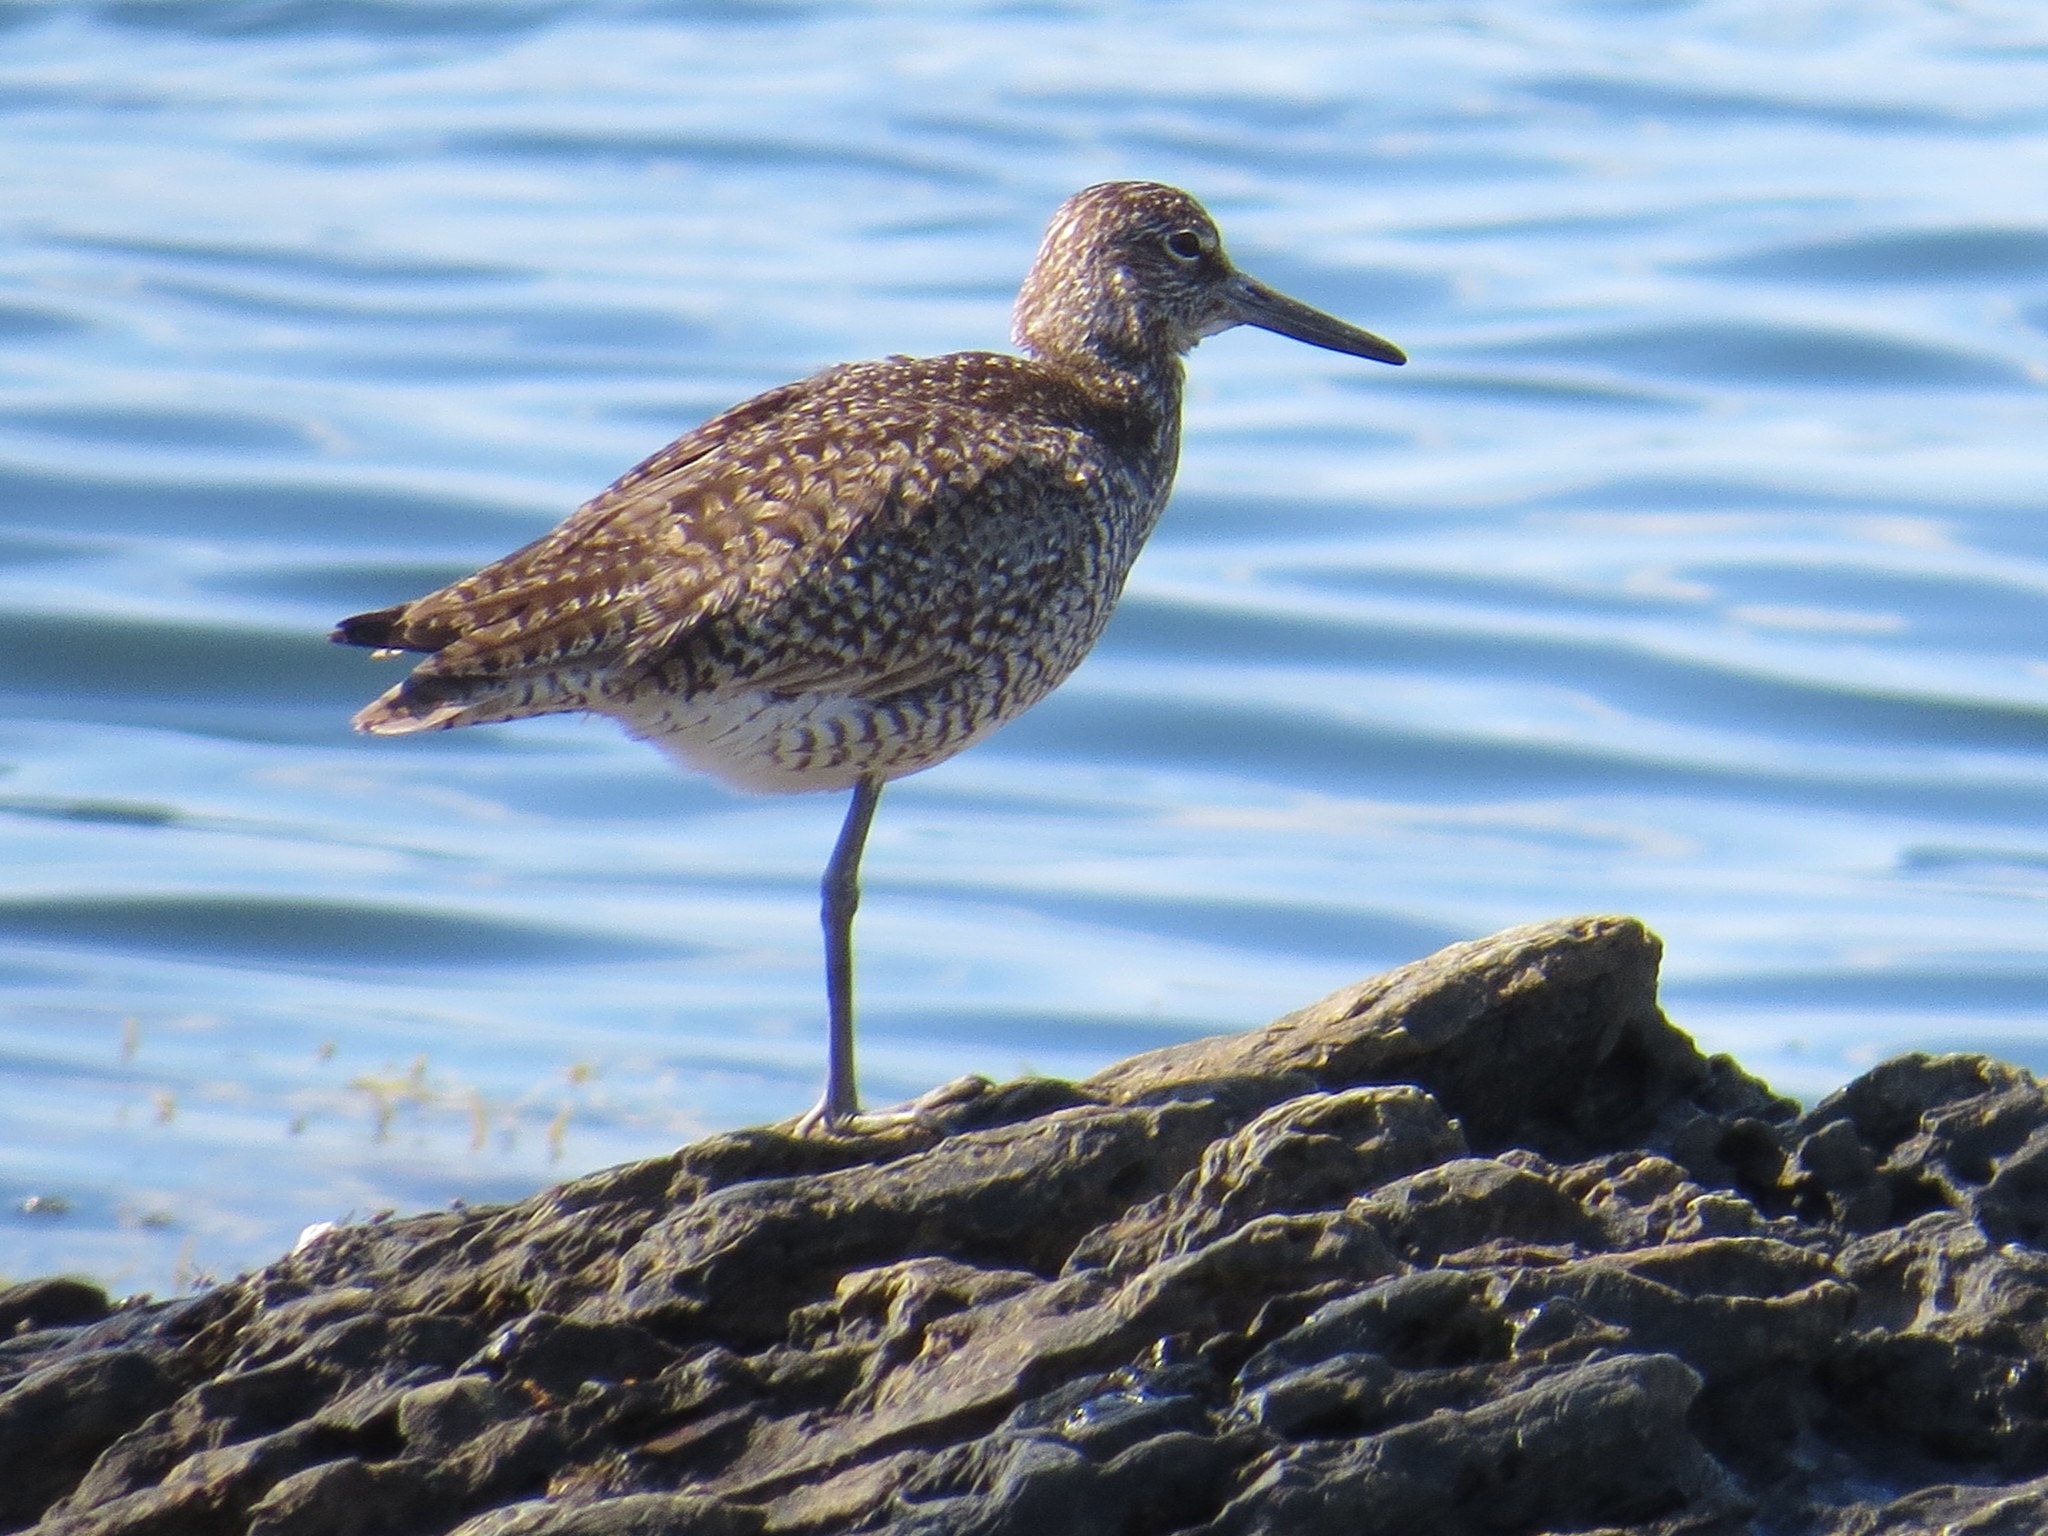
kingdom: Animalia
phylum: Chordata
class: Aves
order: Charadriiformes
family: Scolopacidae
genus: Tringa
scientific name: Tringa semipalmata
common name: Willet
